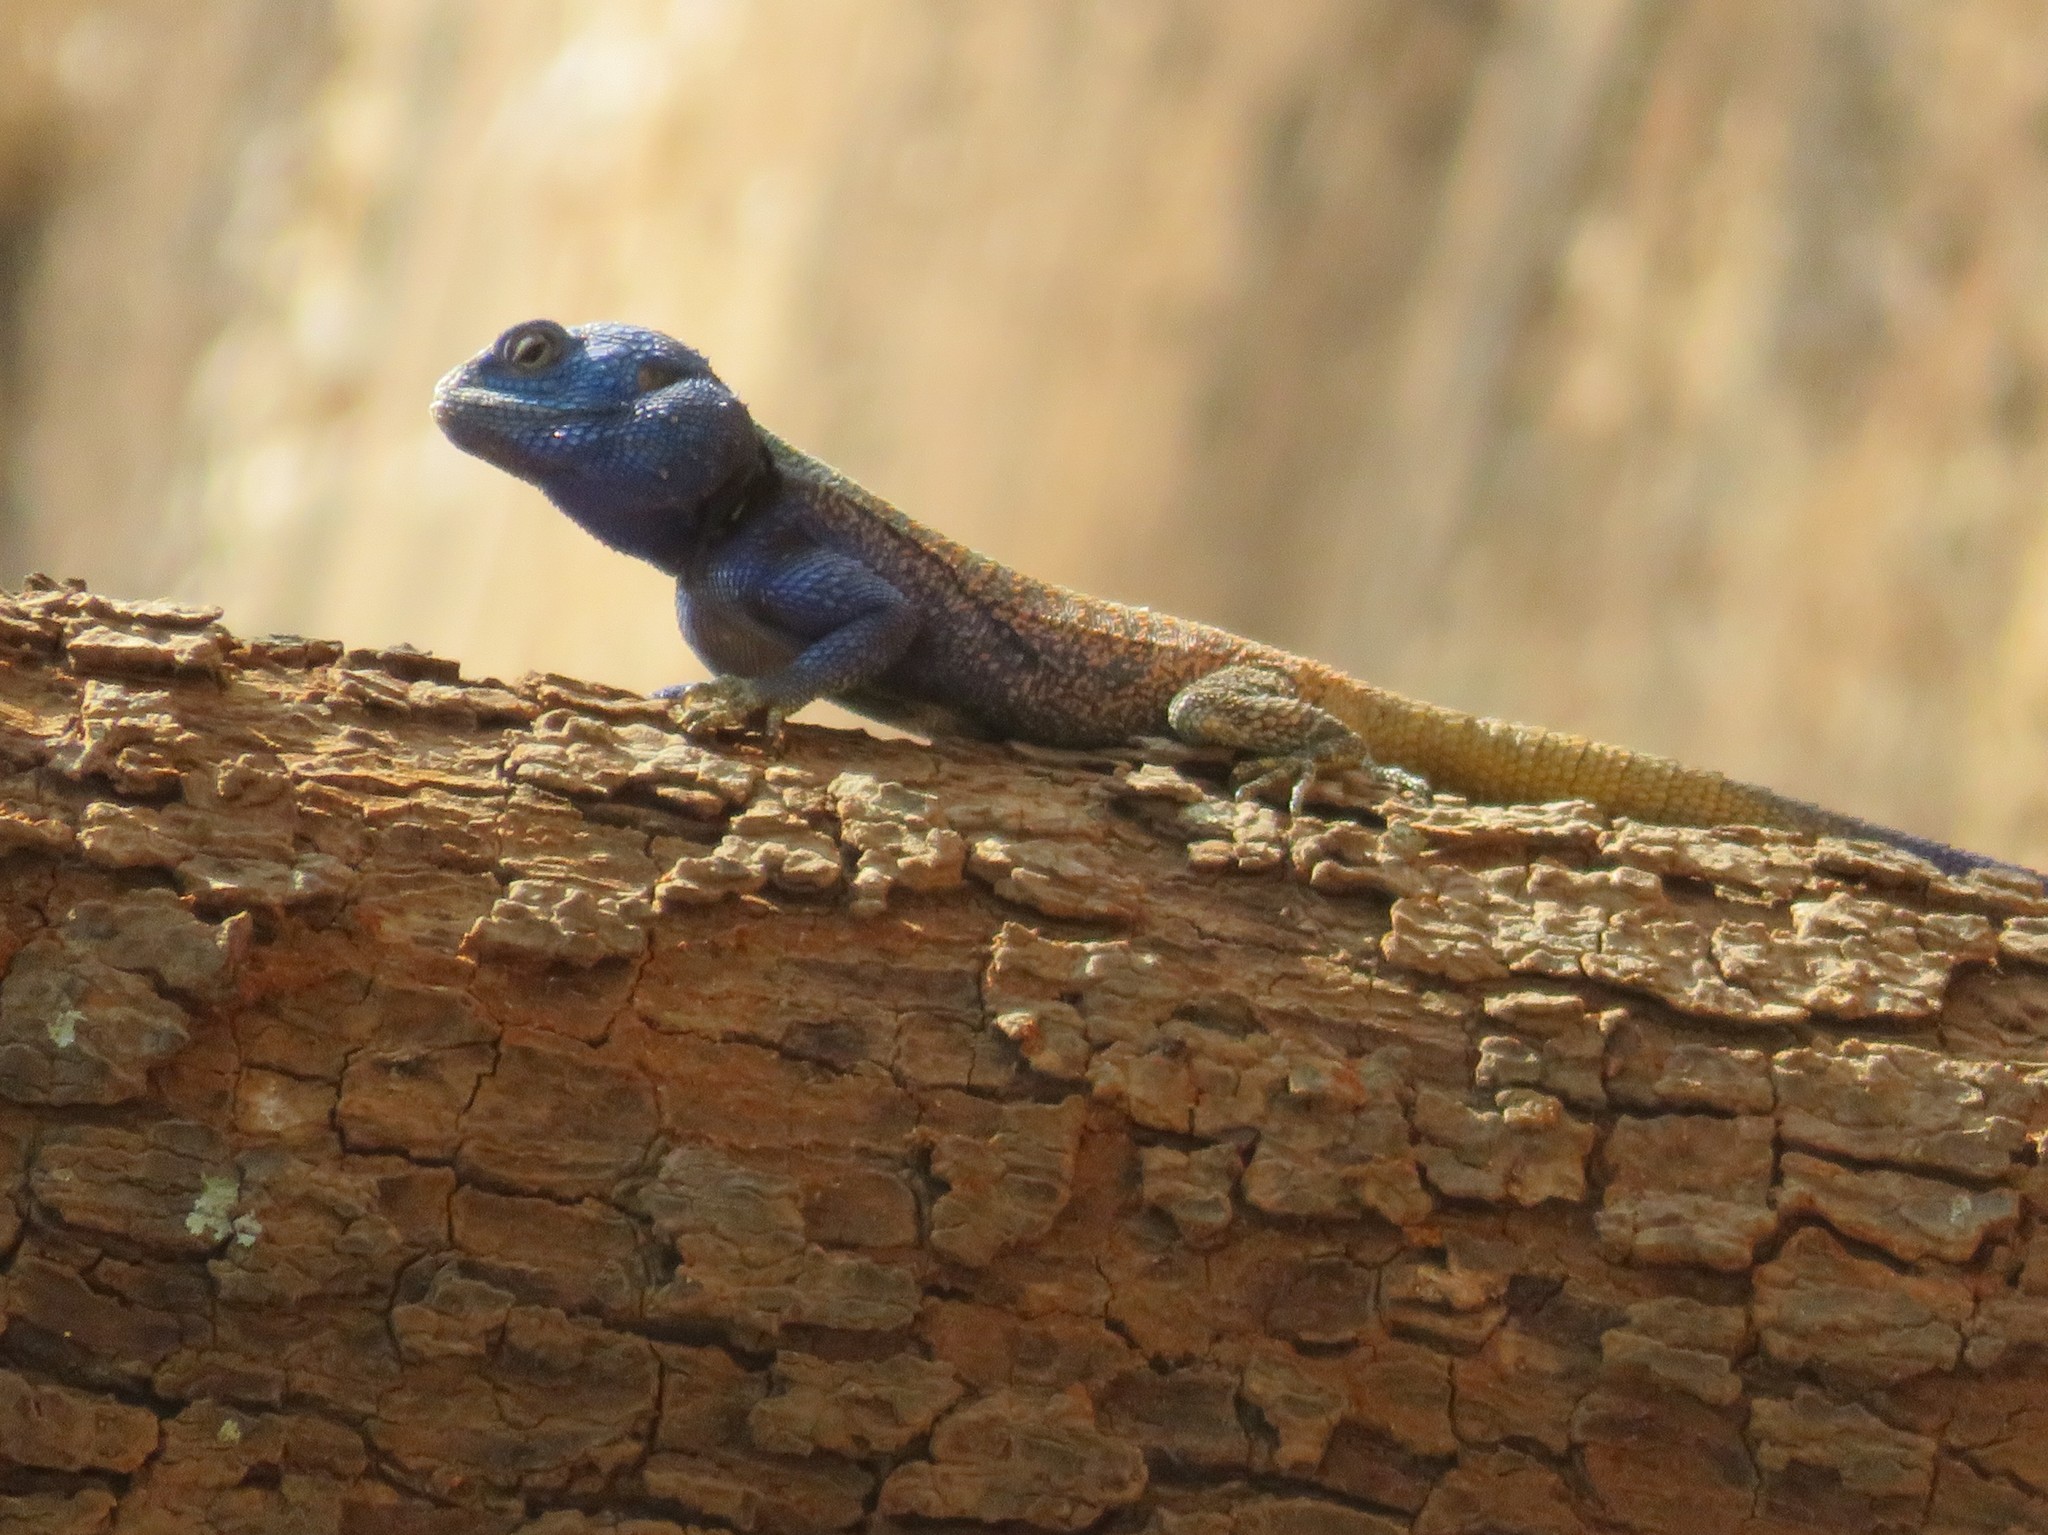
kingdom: Animalia
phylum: Chordata
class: Squamata
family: Agamidae
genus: Acanthocercus
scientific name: Acanthocercus atricollis
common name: Southern tree agama
